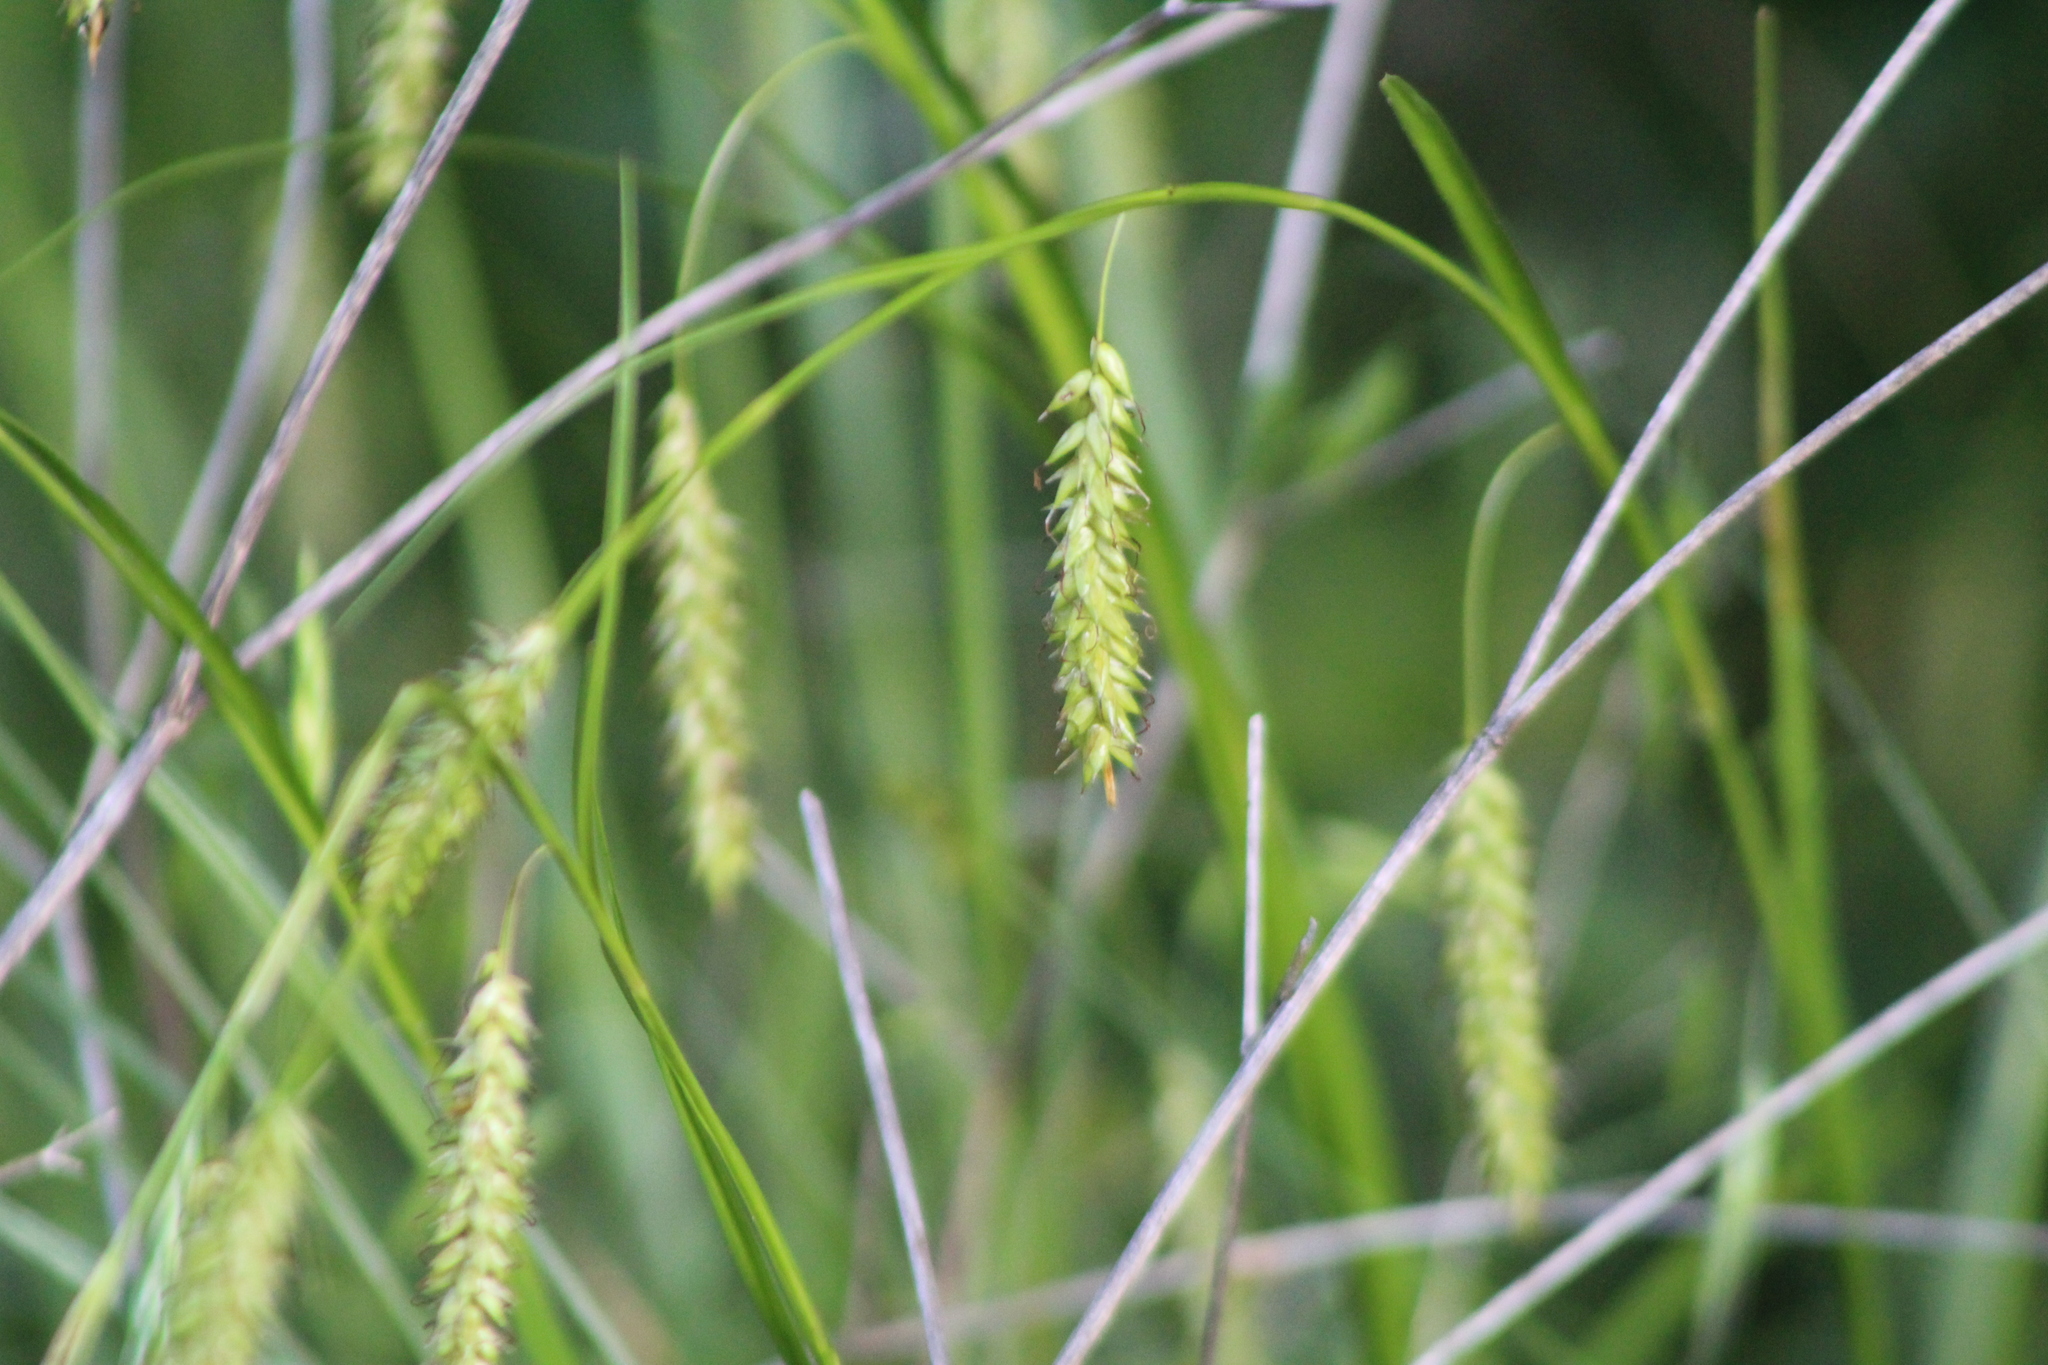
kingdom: Plantae
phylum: Tracheophyta
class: Liliopsida
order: Poales
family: Cyperaceae
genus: Carex
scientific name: Carex cherokeensis
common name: Cherokee sedge
